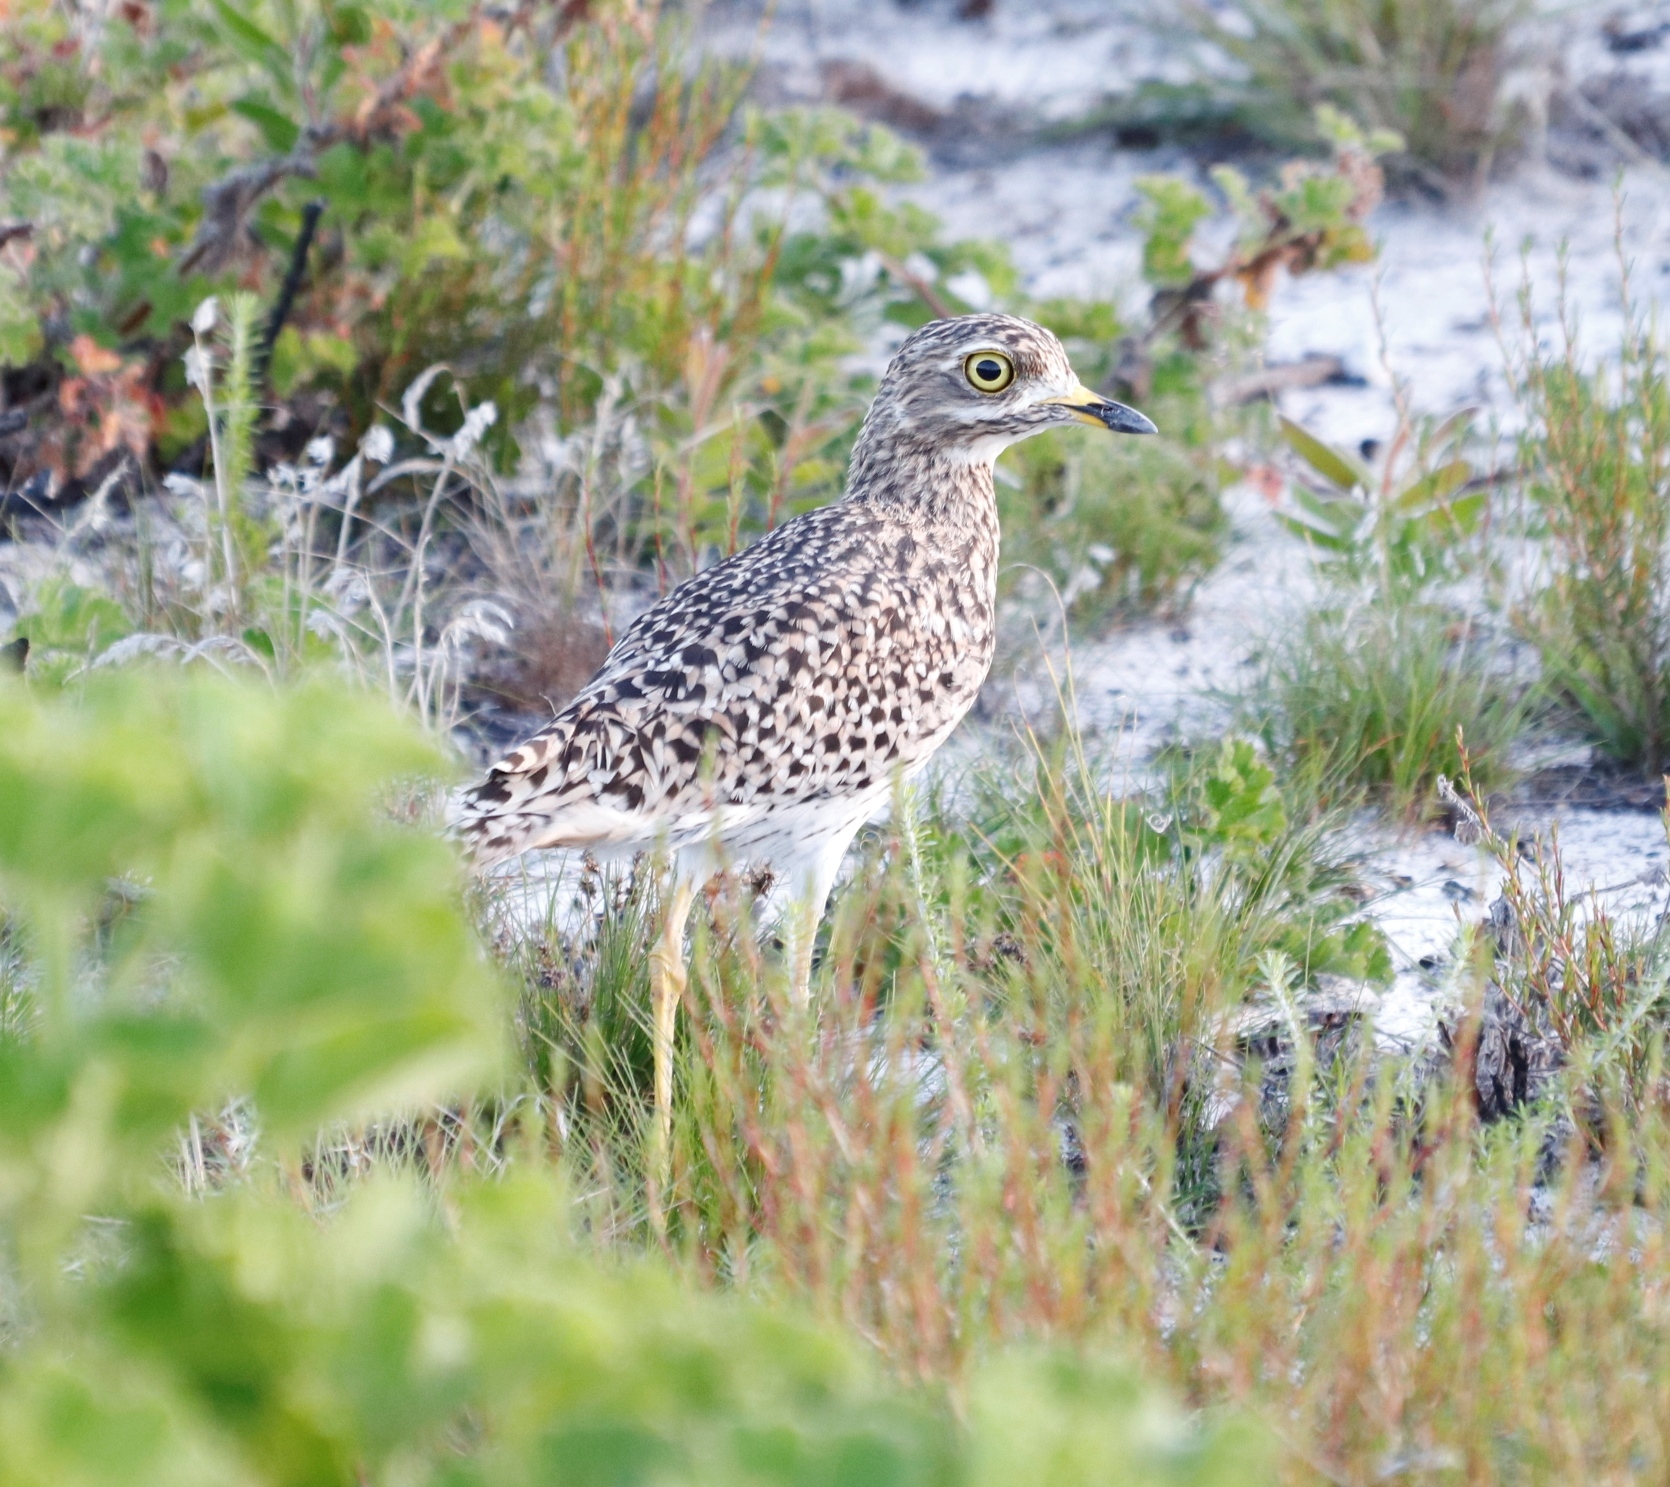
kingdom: Animalia
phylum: Chordata
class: Aves
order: Charadriiformes
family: Burhinidae
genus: Burhinus
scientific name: Burhinus capensis
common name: Spotted thick-knee
